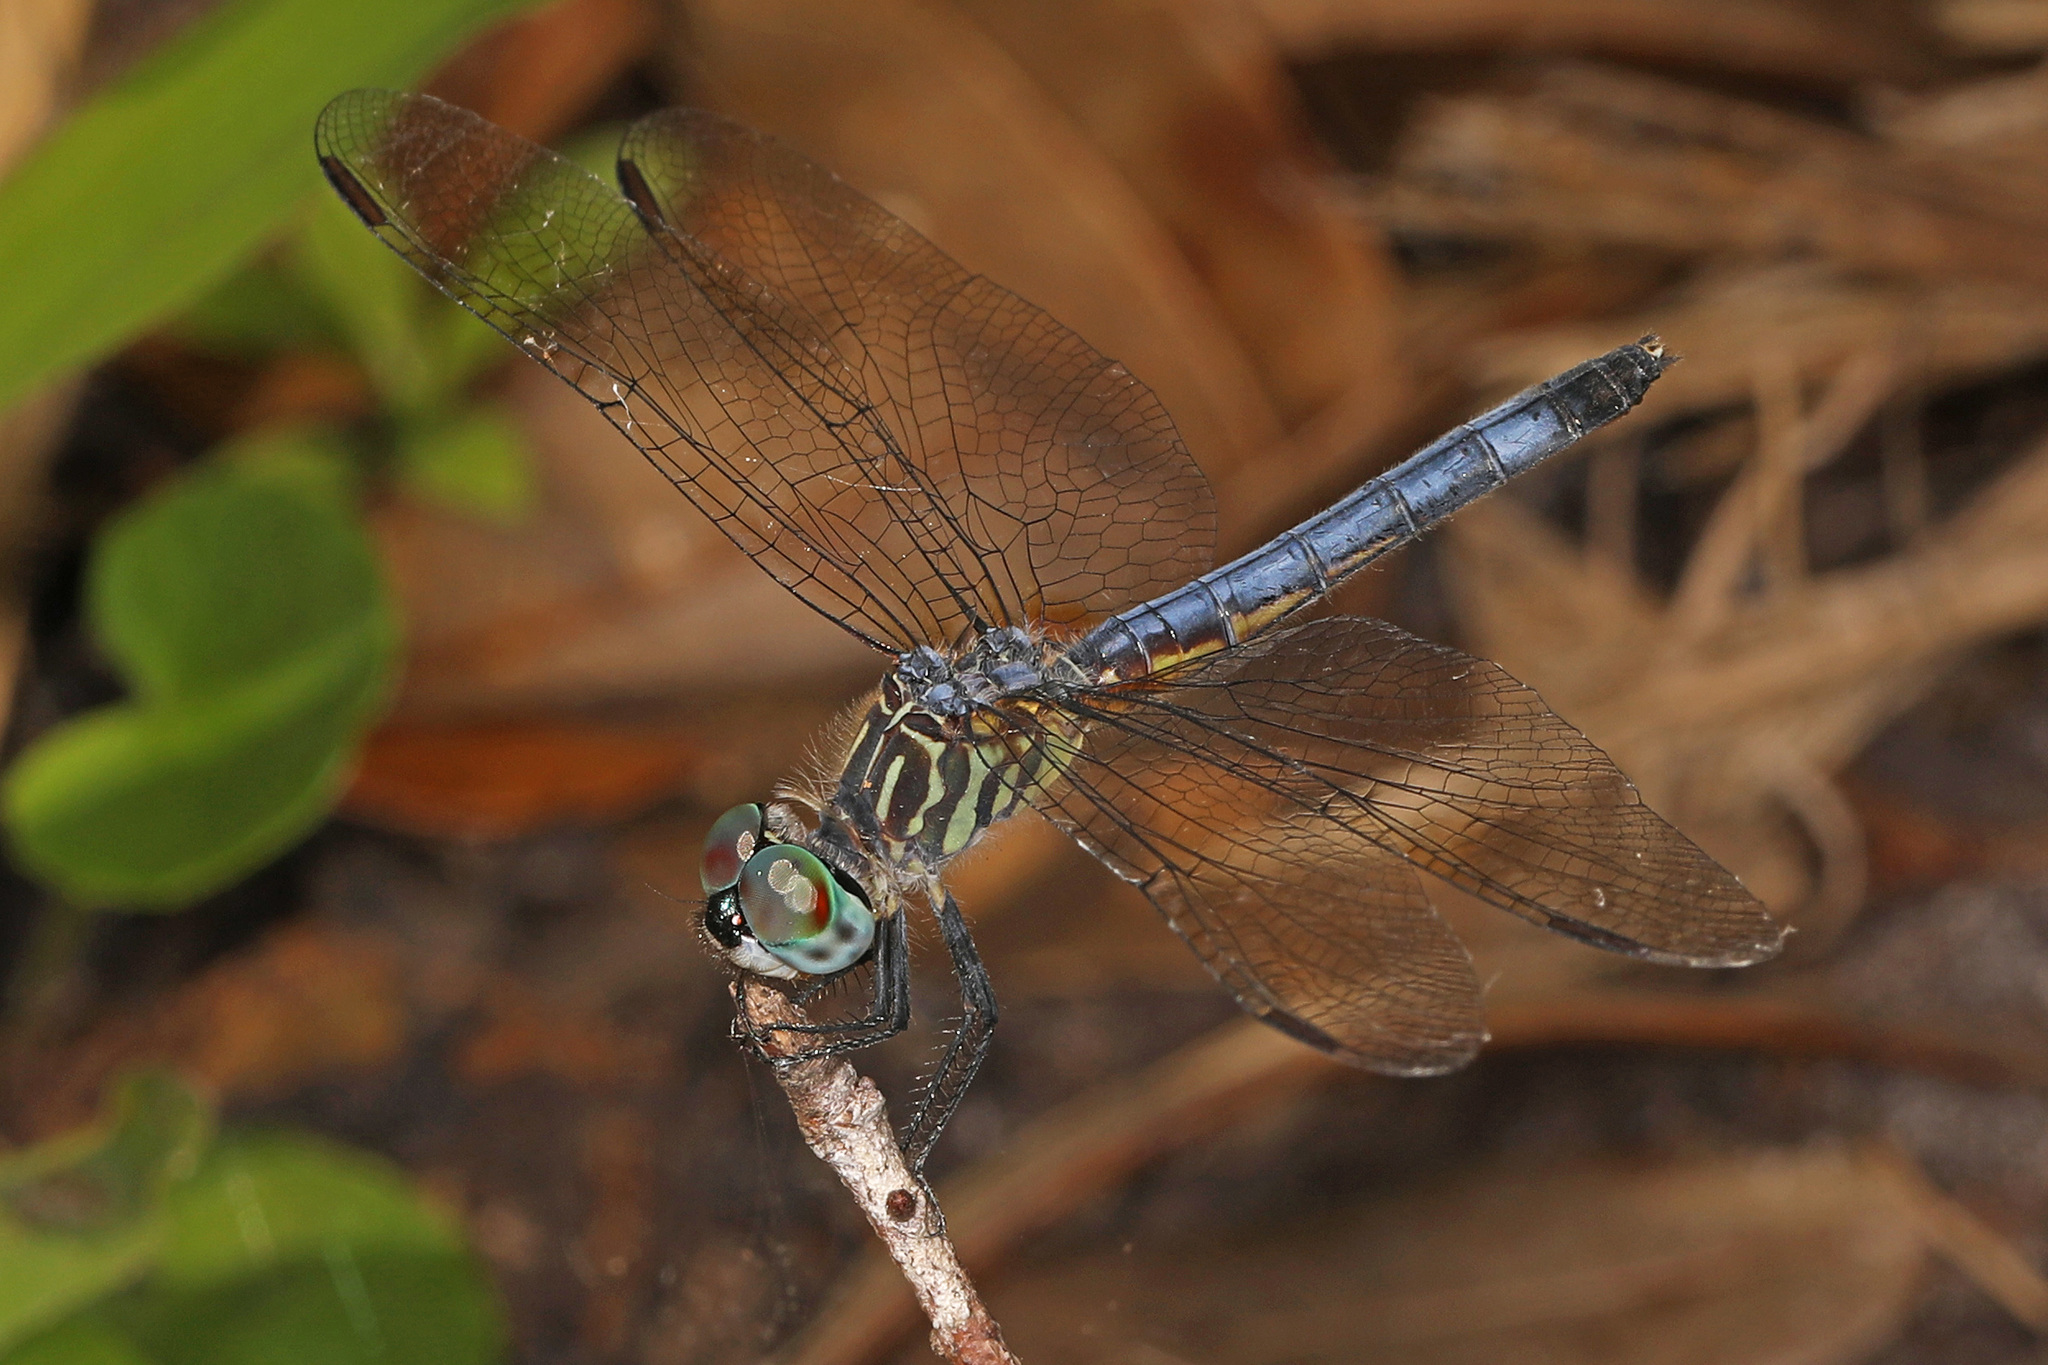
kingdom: Animalia
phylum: Arthropoda
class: Insecta
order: Odonata
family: Libellulidae
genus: Pachydiplax
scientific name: Pachydiplax longipennis
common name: Blue dasher
